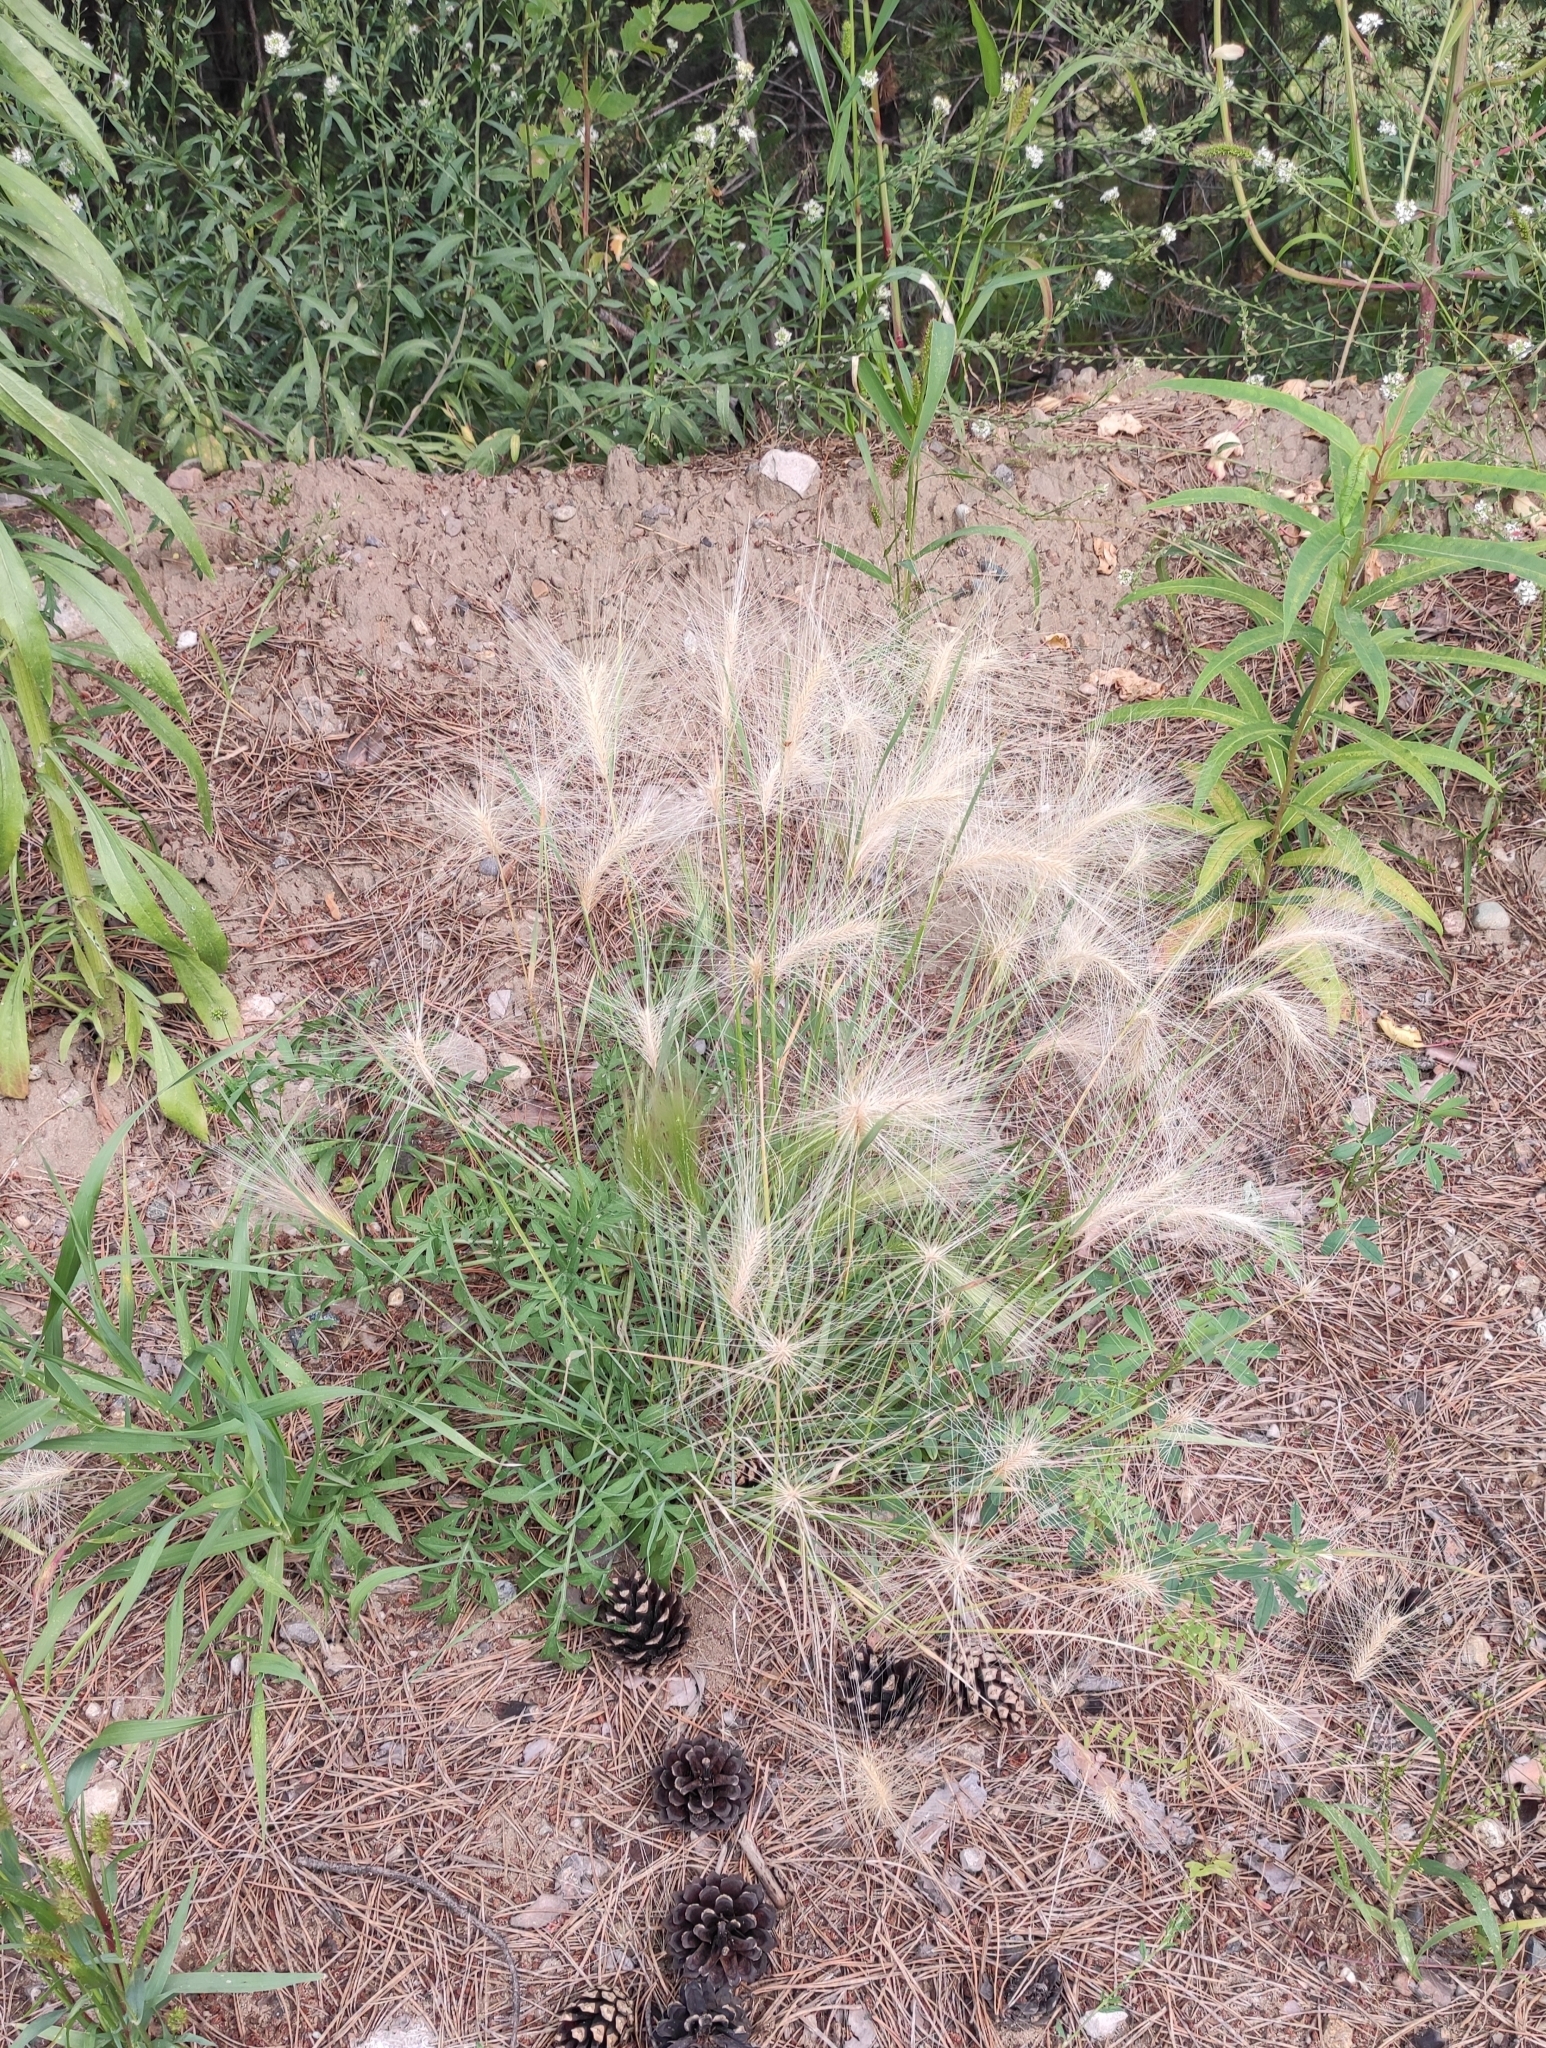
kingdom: Plantae
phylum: Tracheophyta
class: Liliopsida
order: Poales
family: Poaceae
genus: Hordeum
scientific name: Hordeum jubatum
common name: Foxtail barley
